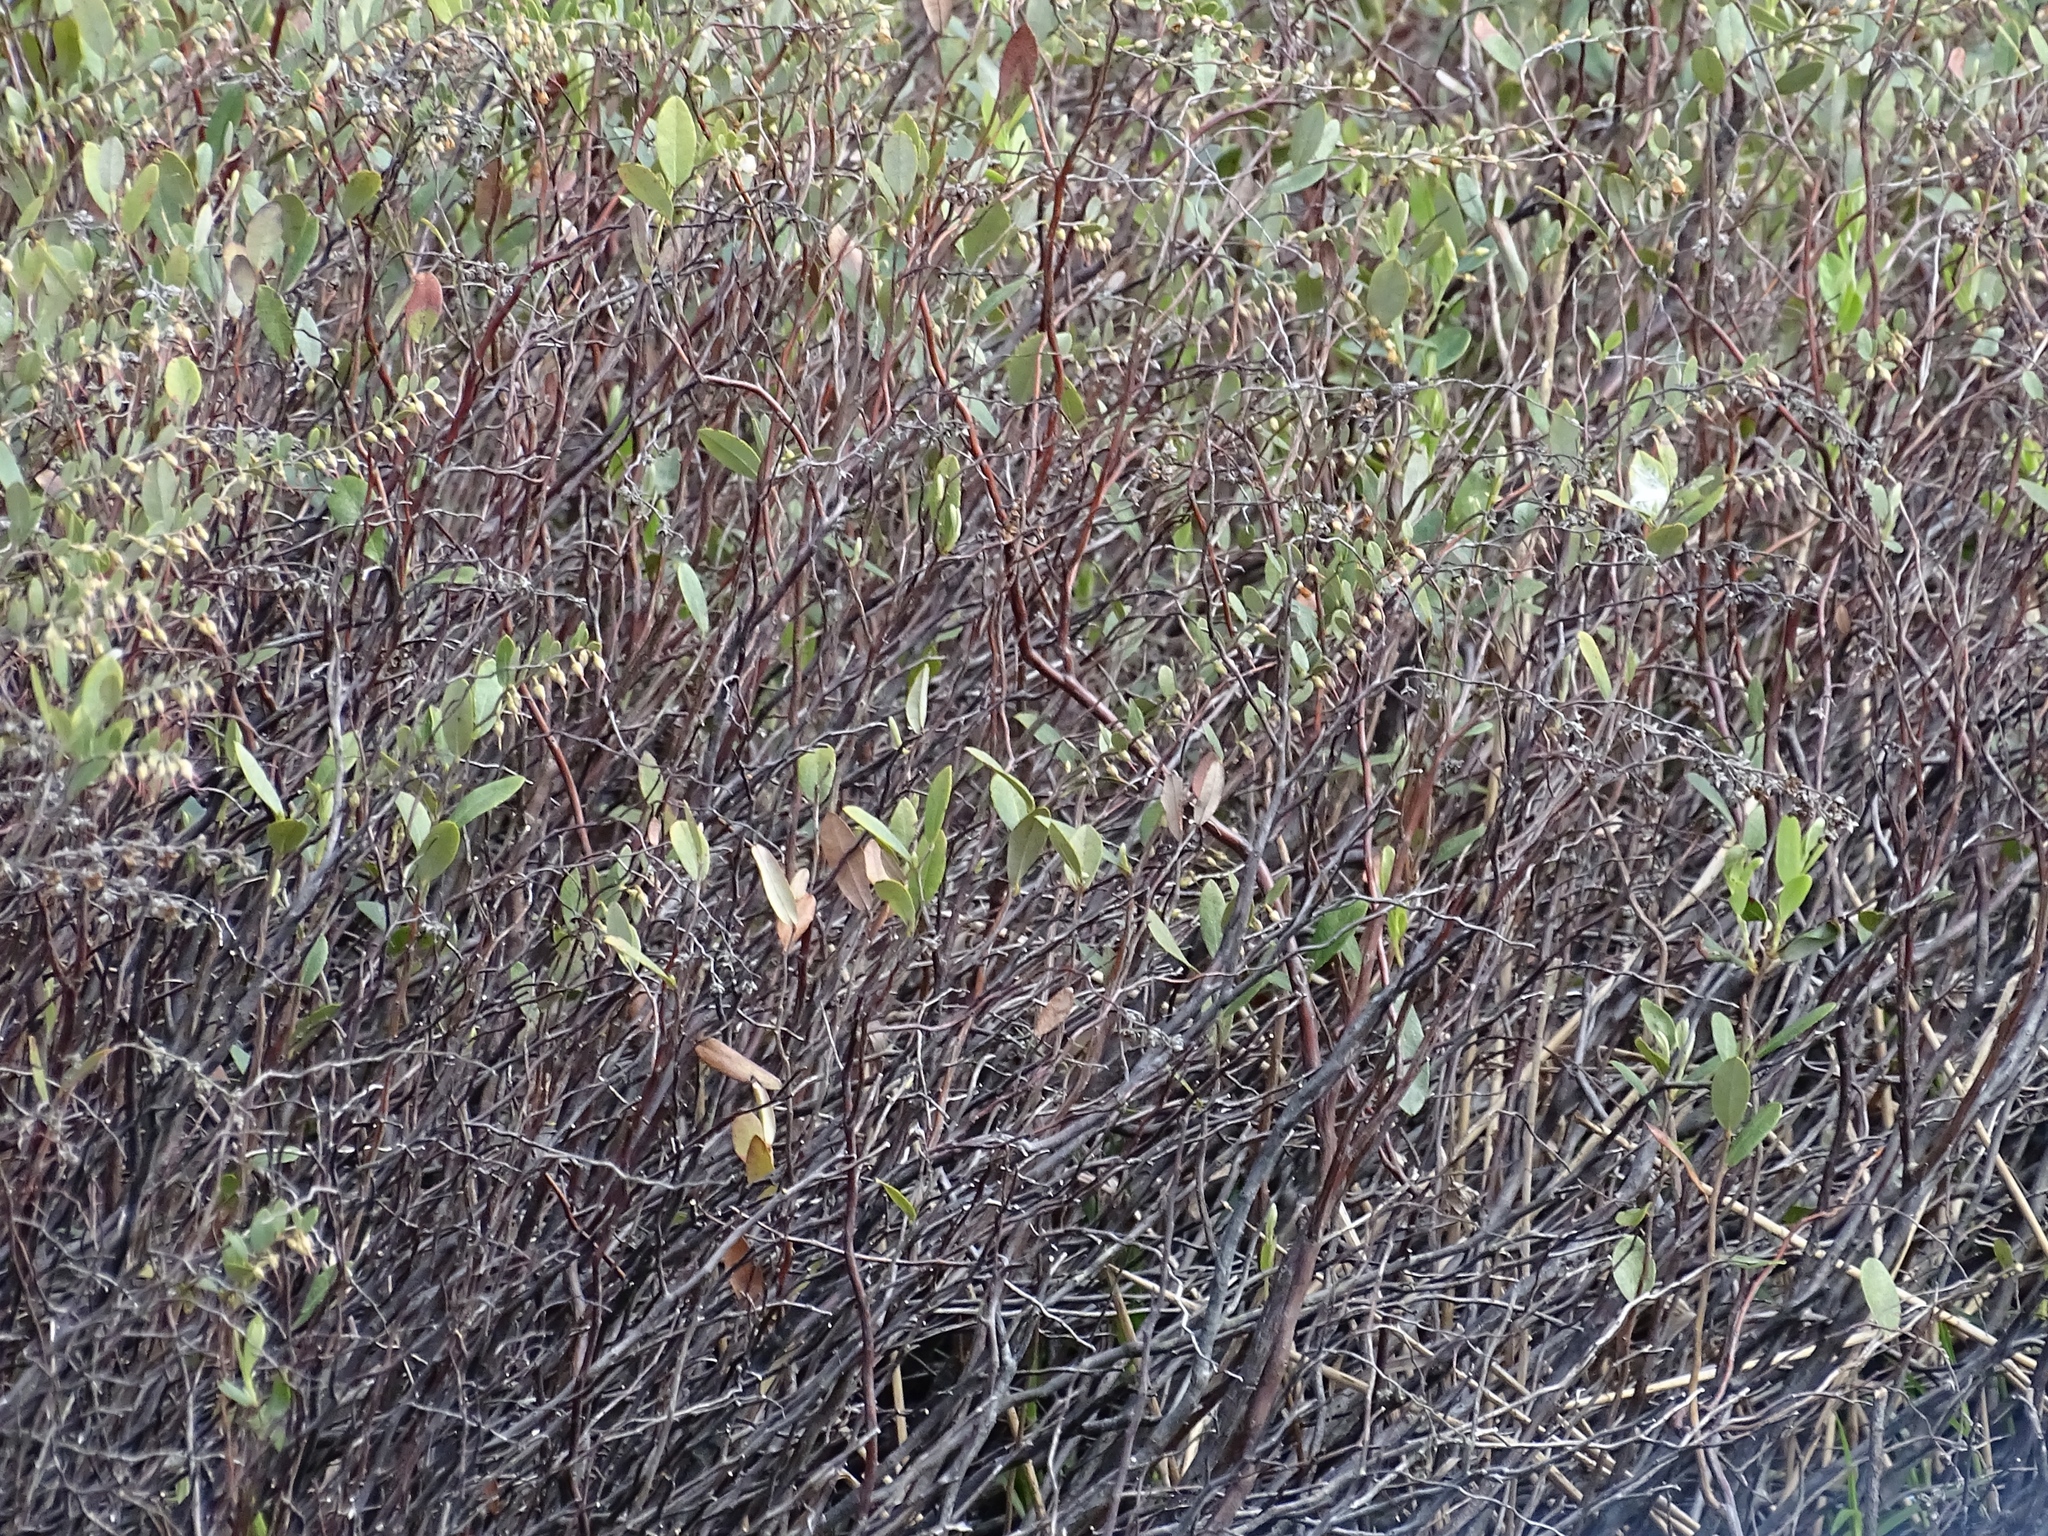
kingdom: Plantae
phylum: Tracheophyta
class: Magnoliopsida
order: Ericales
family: Ericaceae
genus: Chamaedaphne
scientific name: Chamaedaphne calyculata
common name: Leatherleaf
